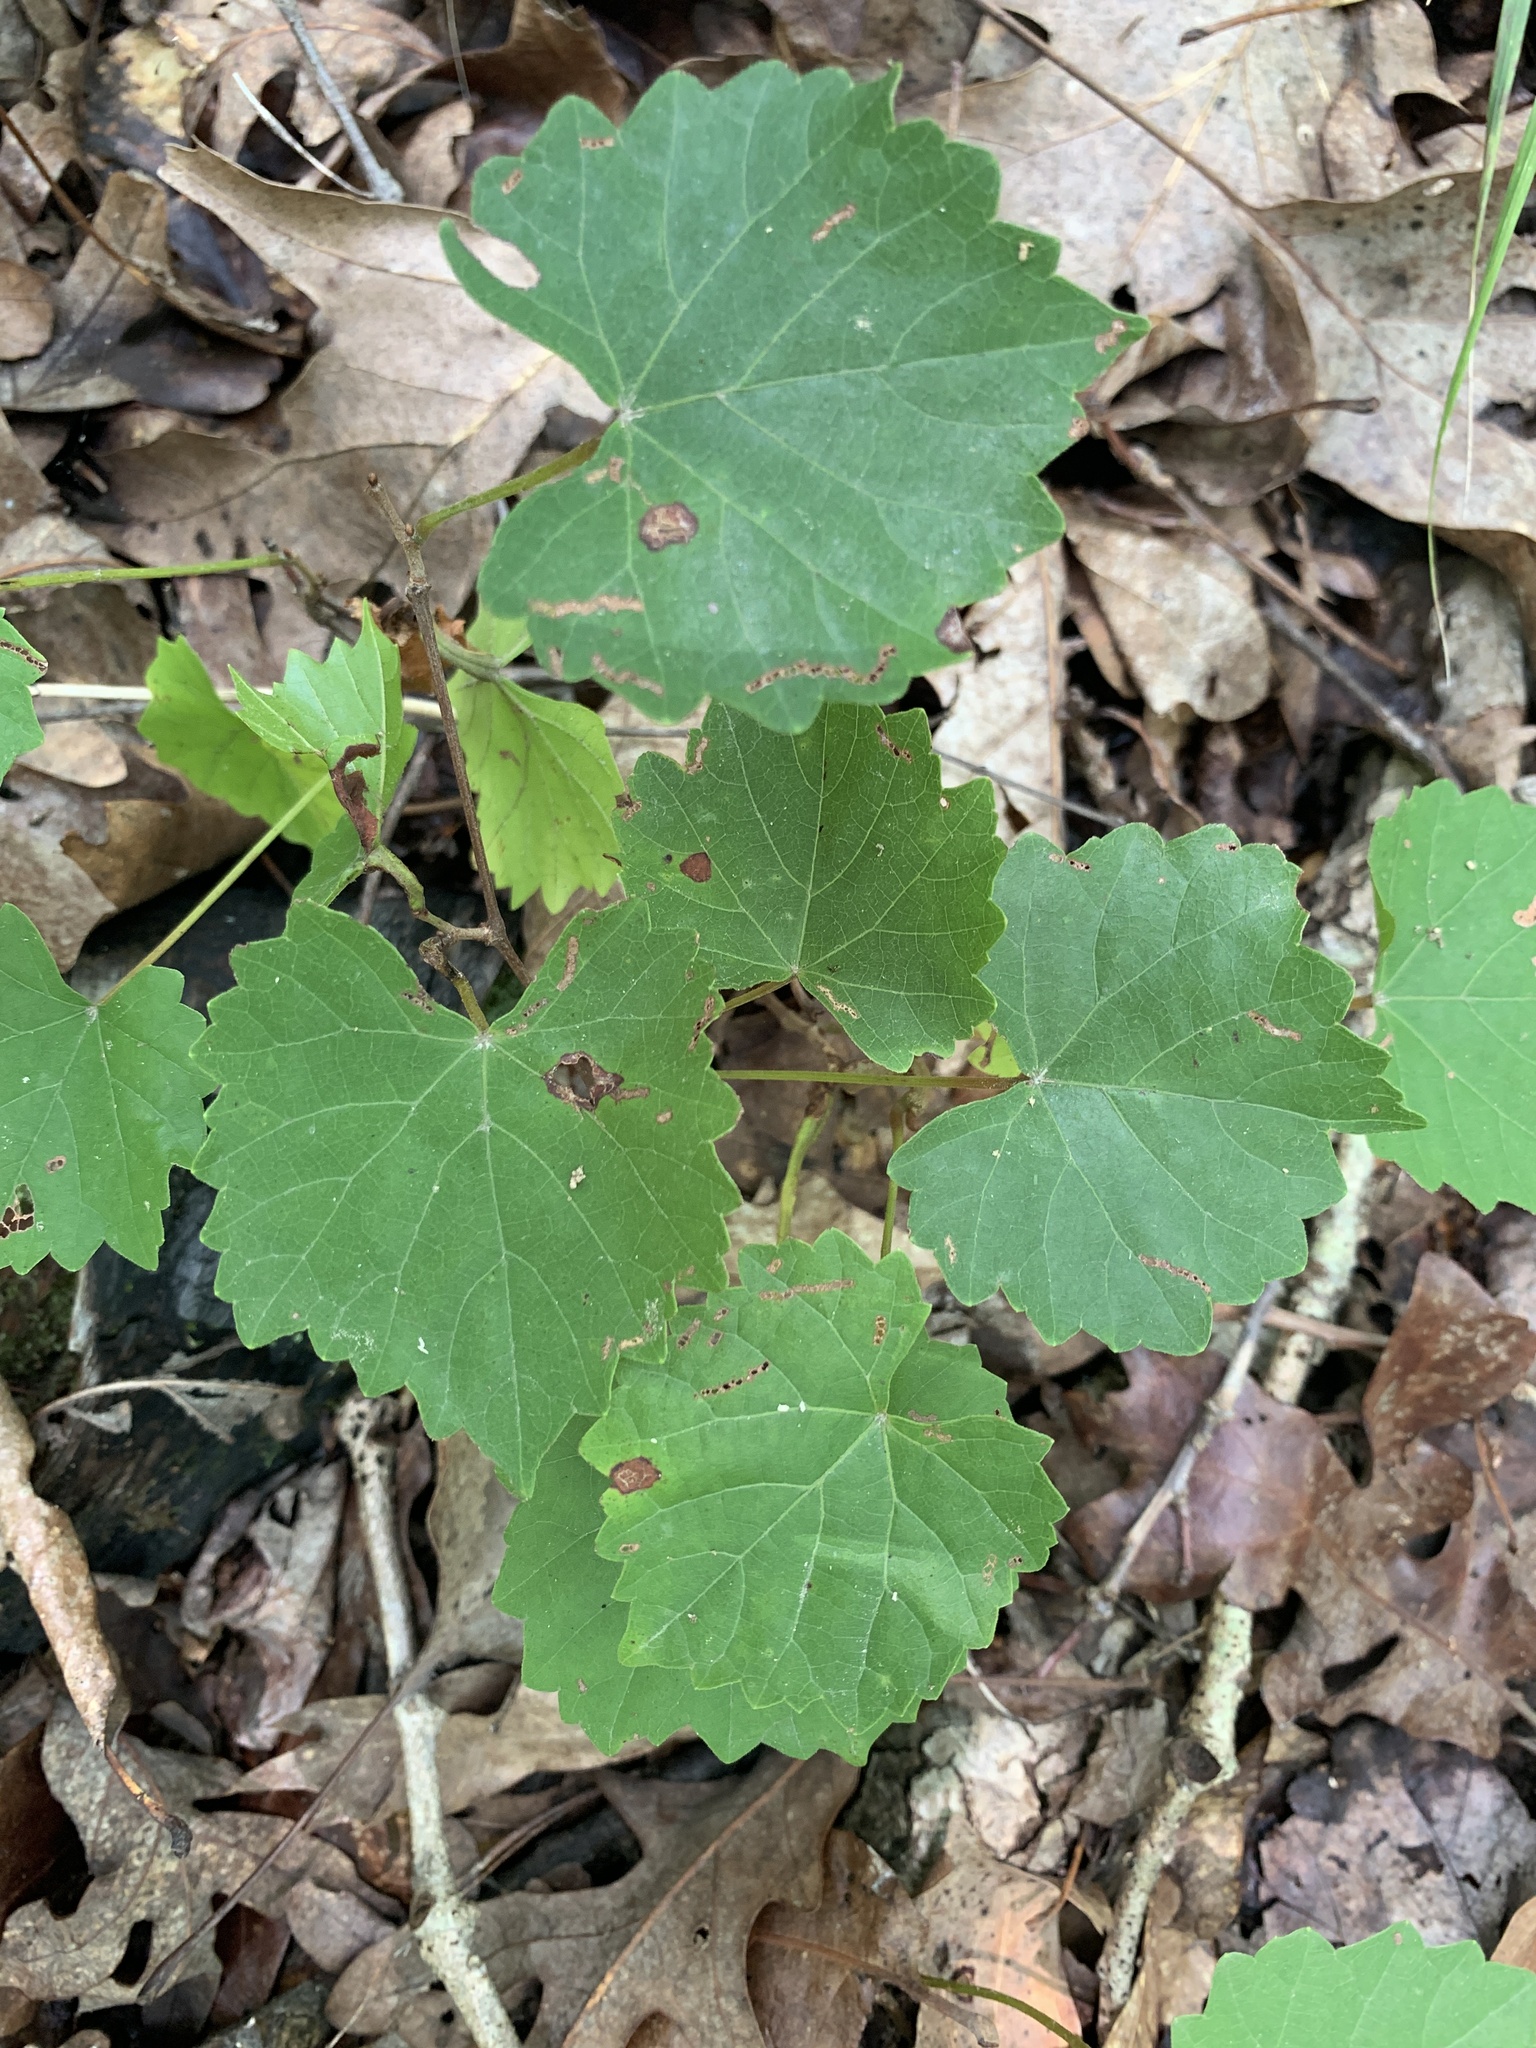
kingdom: Plantae
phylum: Tracheophyta
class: Magnoliopsida
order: Vitales
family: Vitaceae
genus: Vitis
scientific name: Vitis rotundifolia
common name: Muscadine grape
